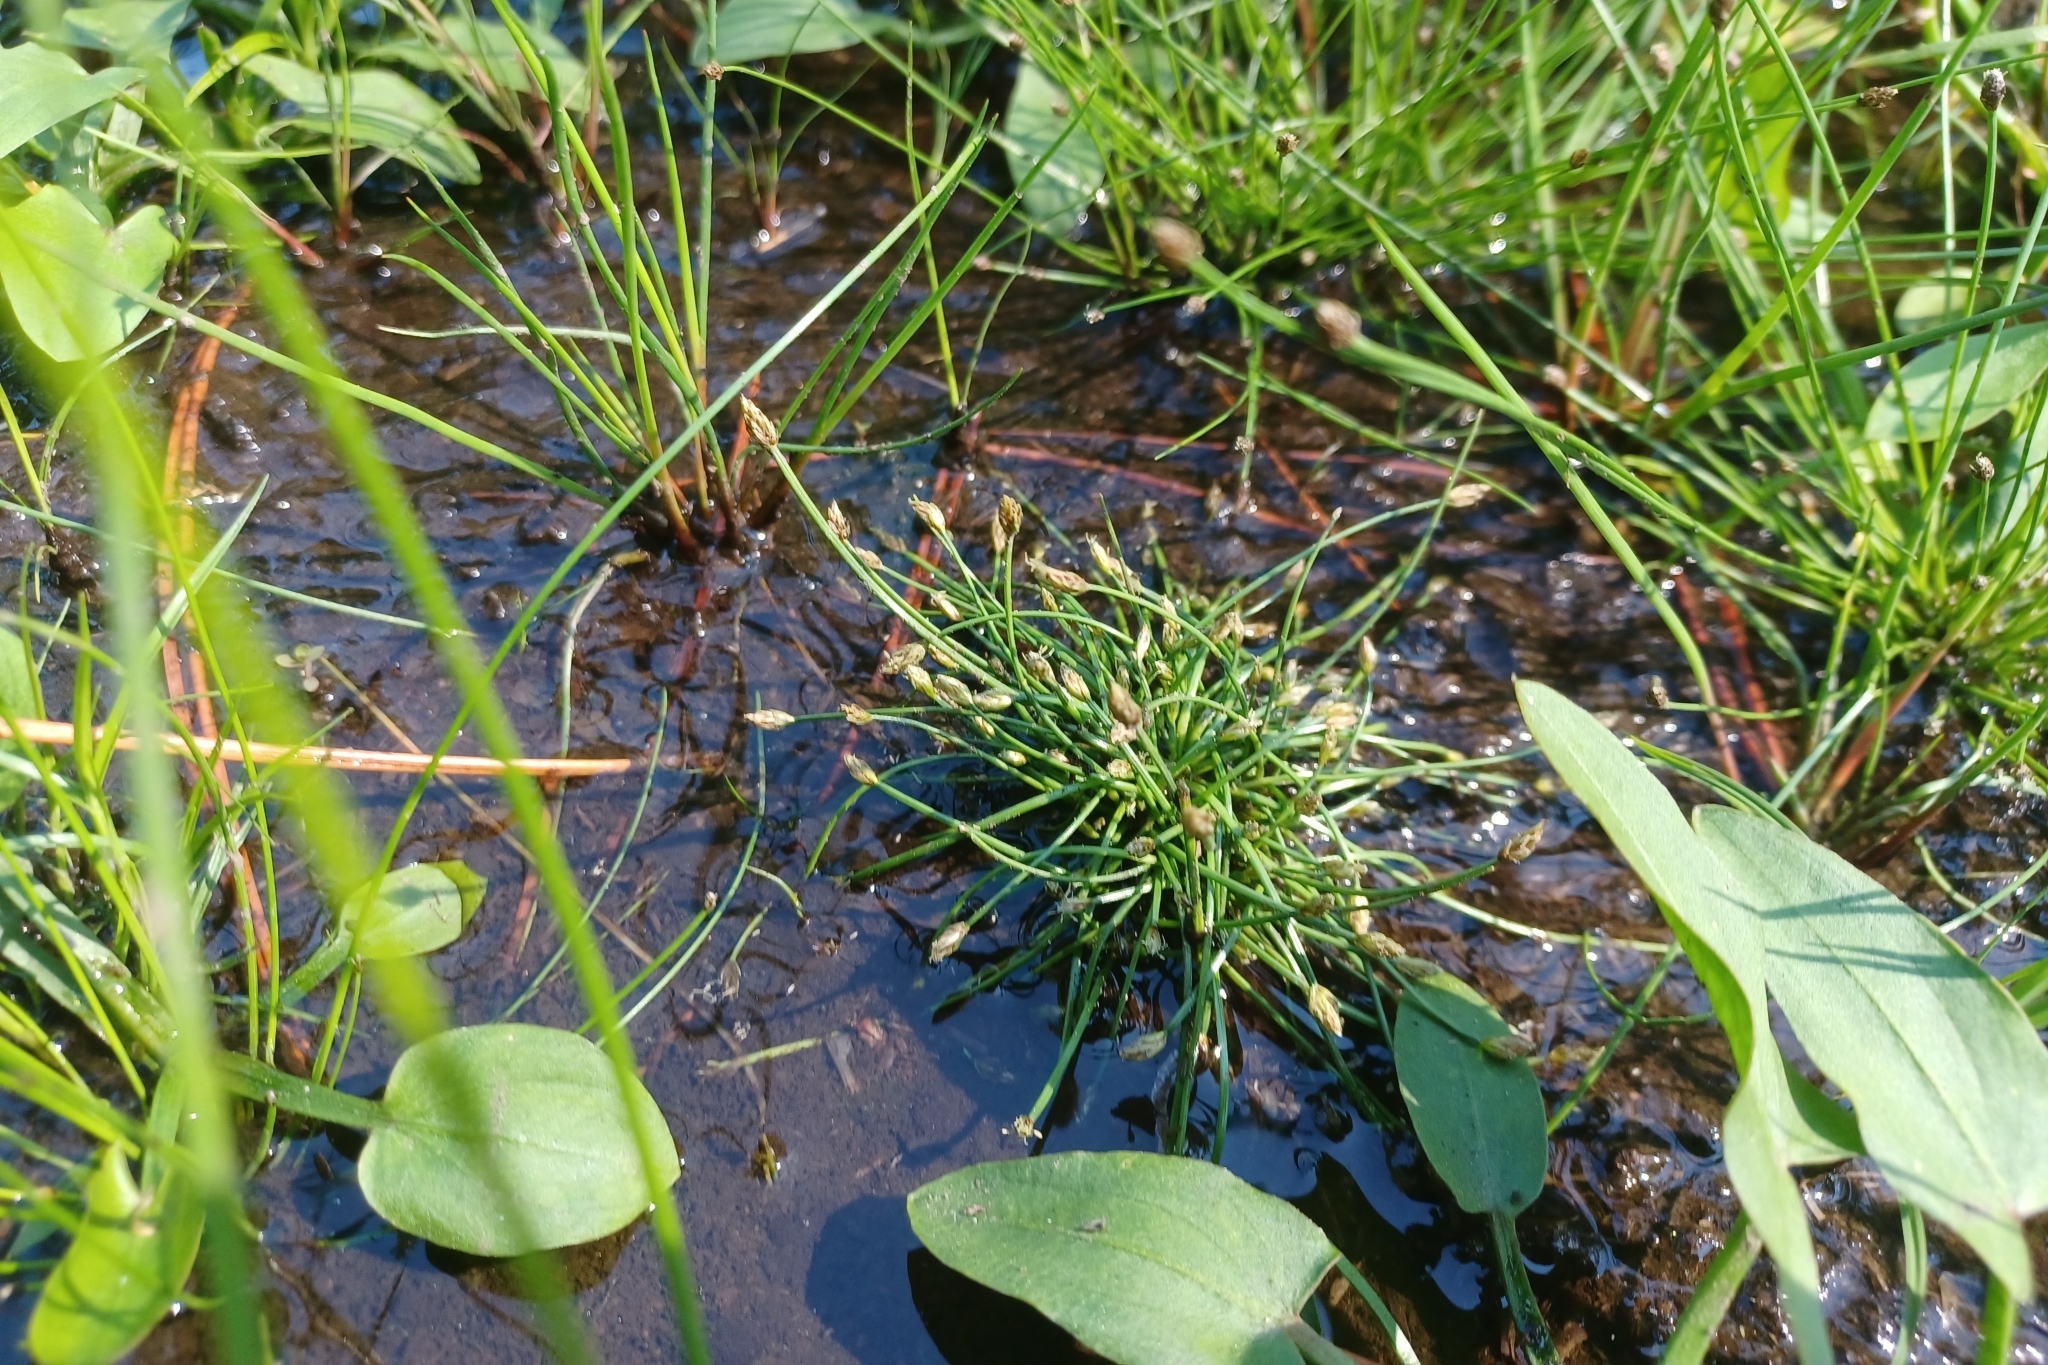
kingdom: Plantae
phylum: Tracheophyta
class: Liliopsida
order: Poales
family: Cyperaceae
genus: Eleocharis
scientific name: Eleocharis flavescens
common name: Yellow spikerush
